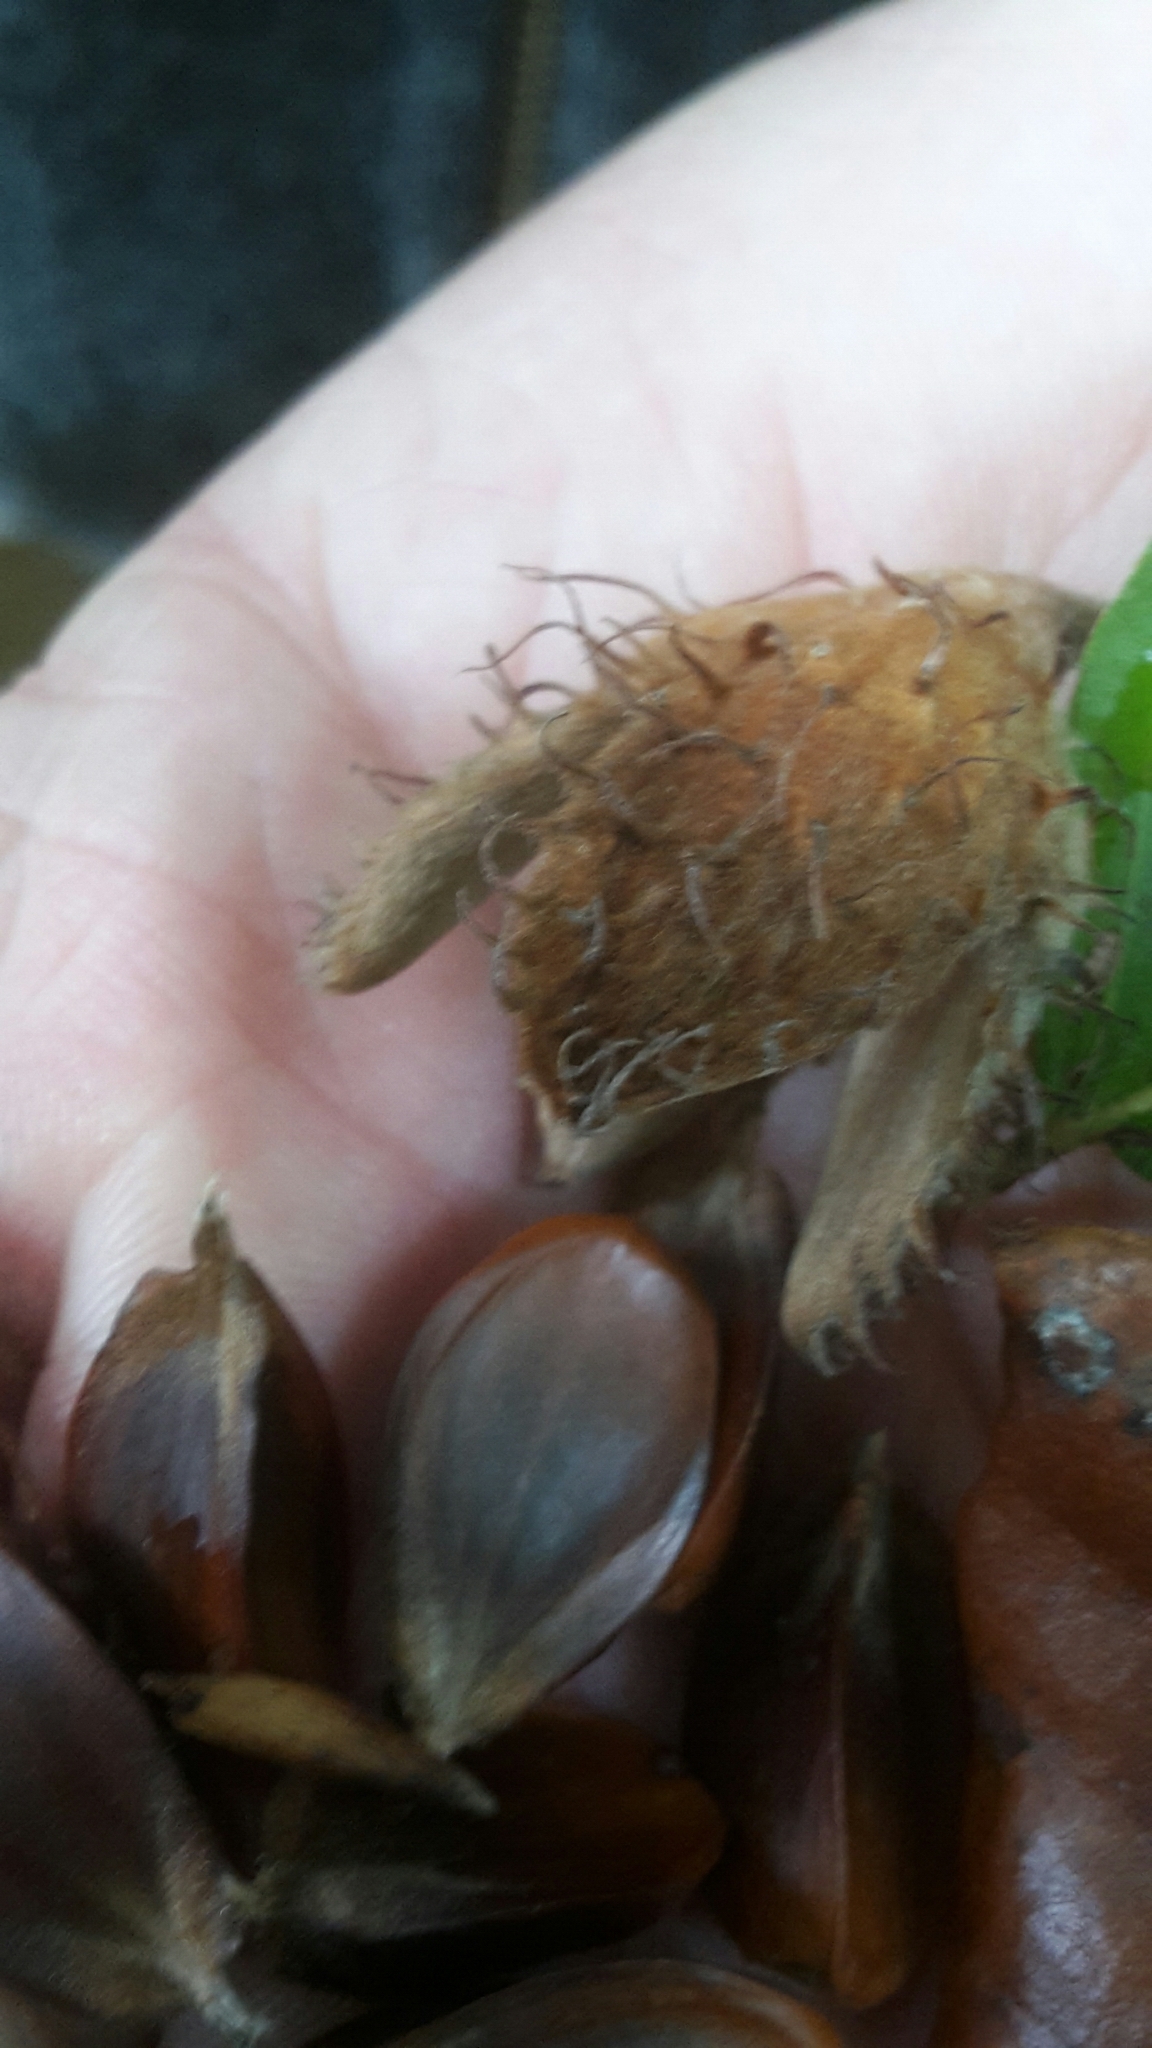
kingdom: Plantae
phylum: Tracheophyta
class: Magnoliopsida
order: Fagales
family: Fagaceae
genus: Fagus
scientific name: Fagus sylvatica
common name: Beech
